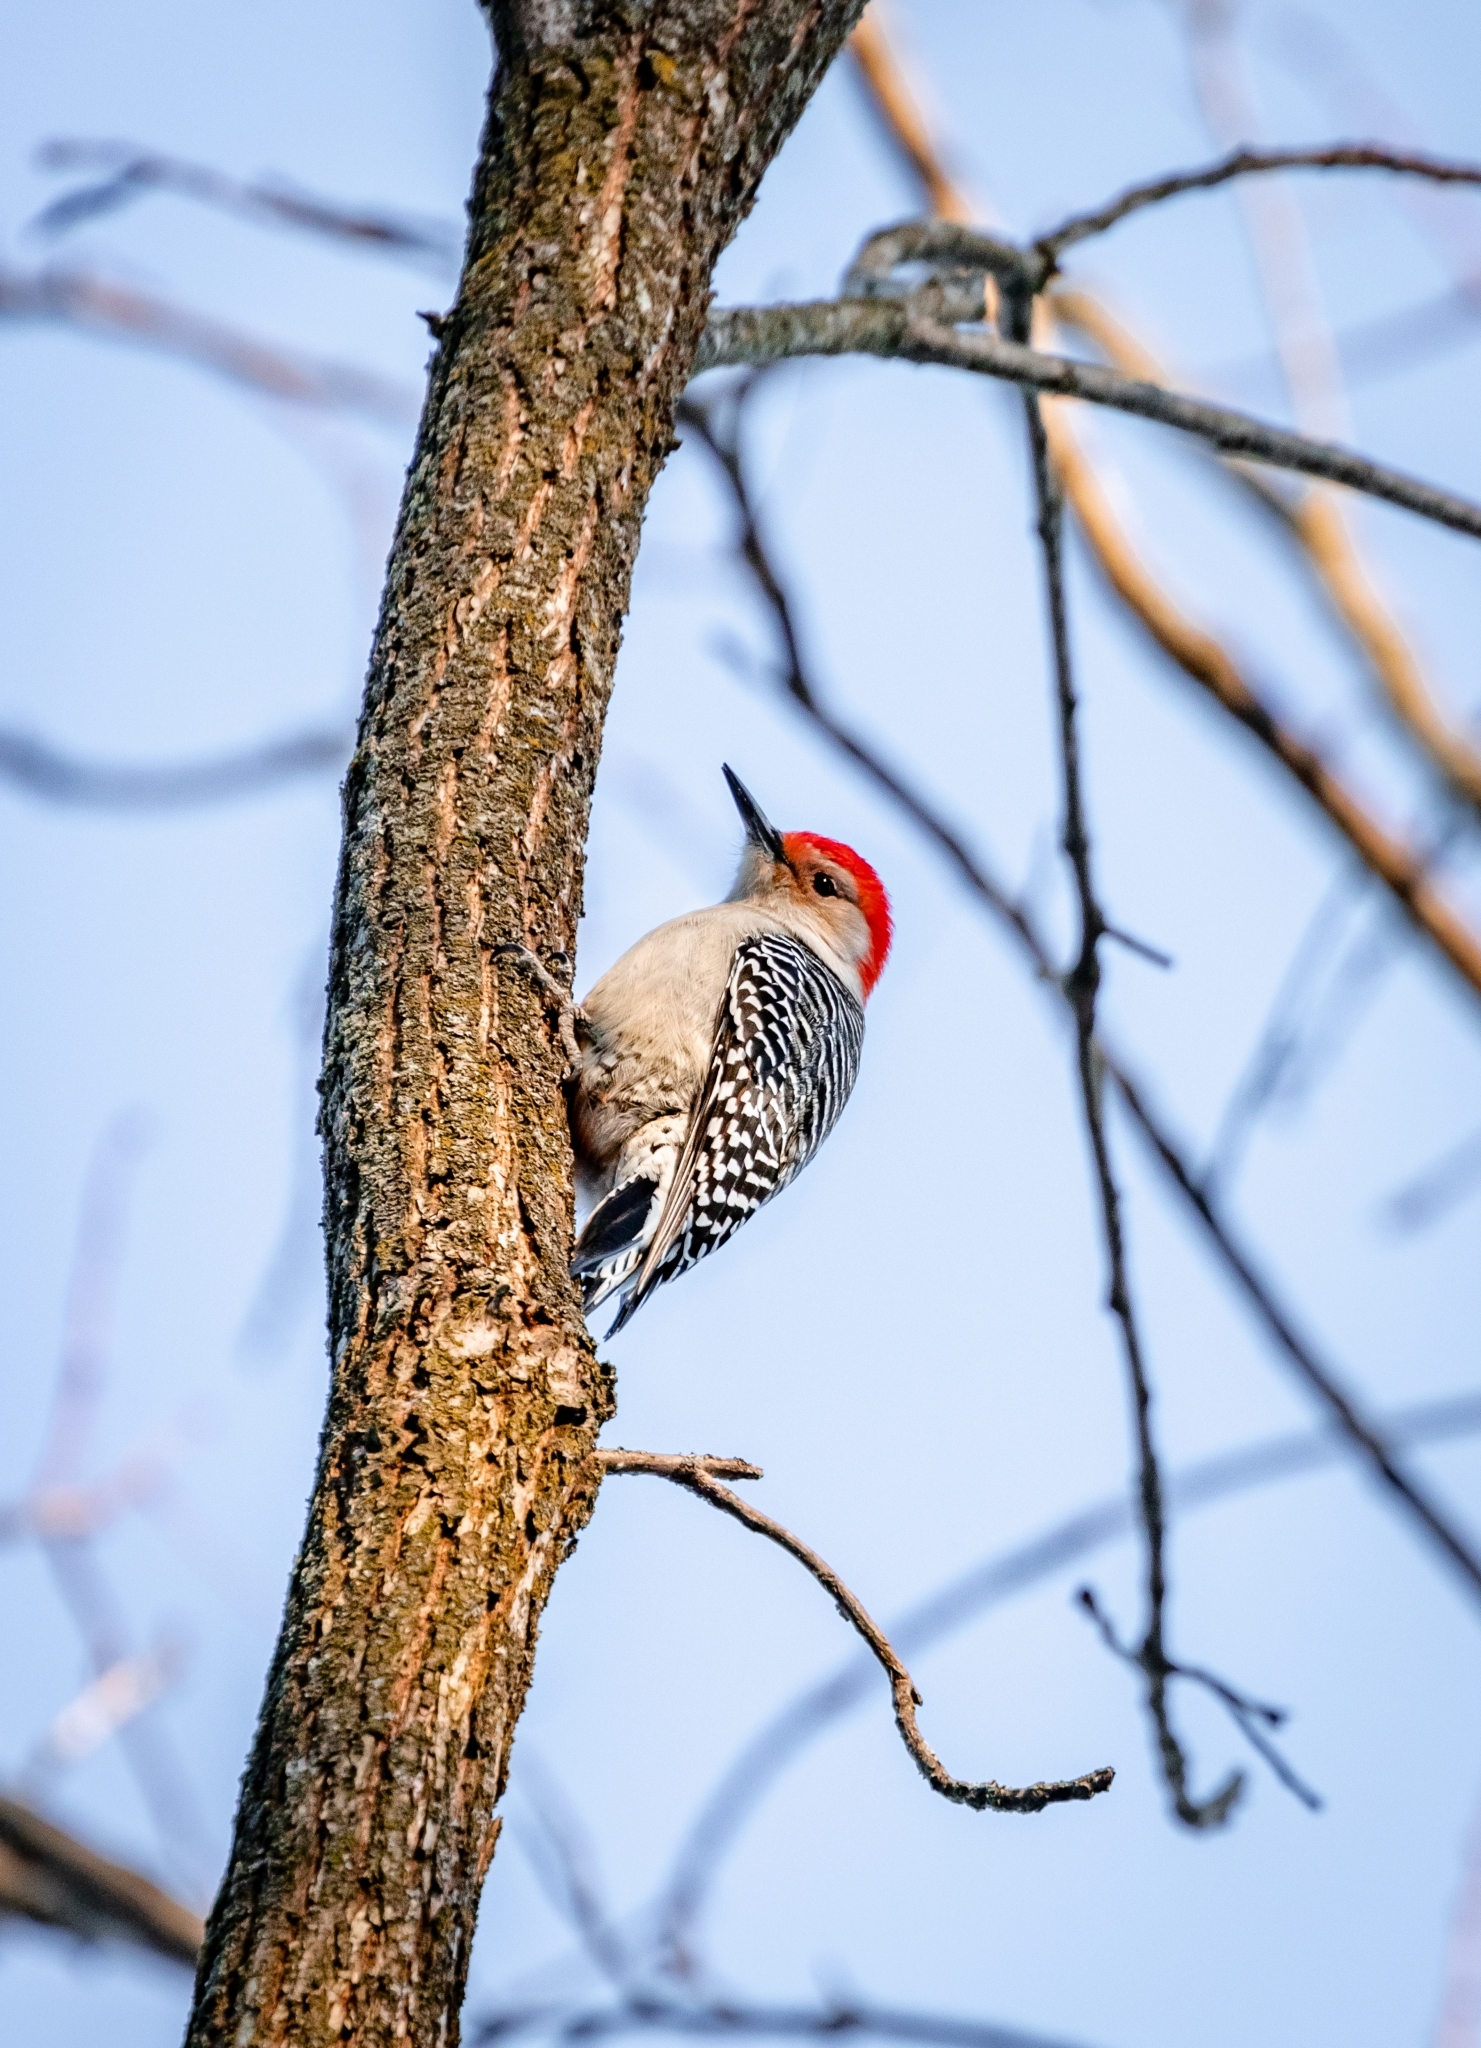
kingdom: Animalia
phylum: Chordata
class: Aves
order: Piciformes
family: Picidae
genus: Melanerpes
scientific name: Melanerpes carolinus
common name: Red-bellied woodpecker
